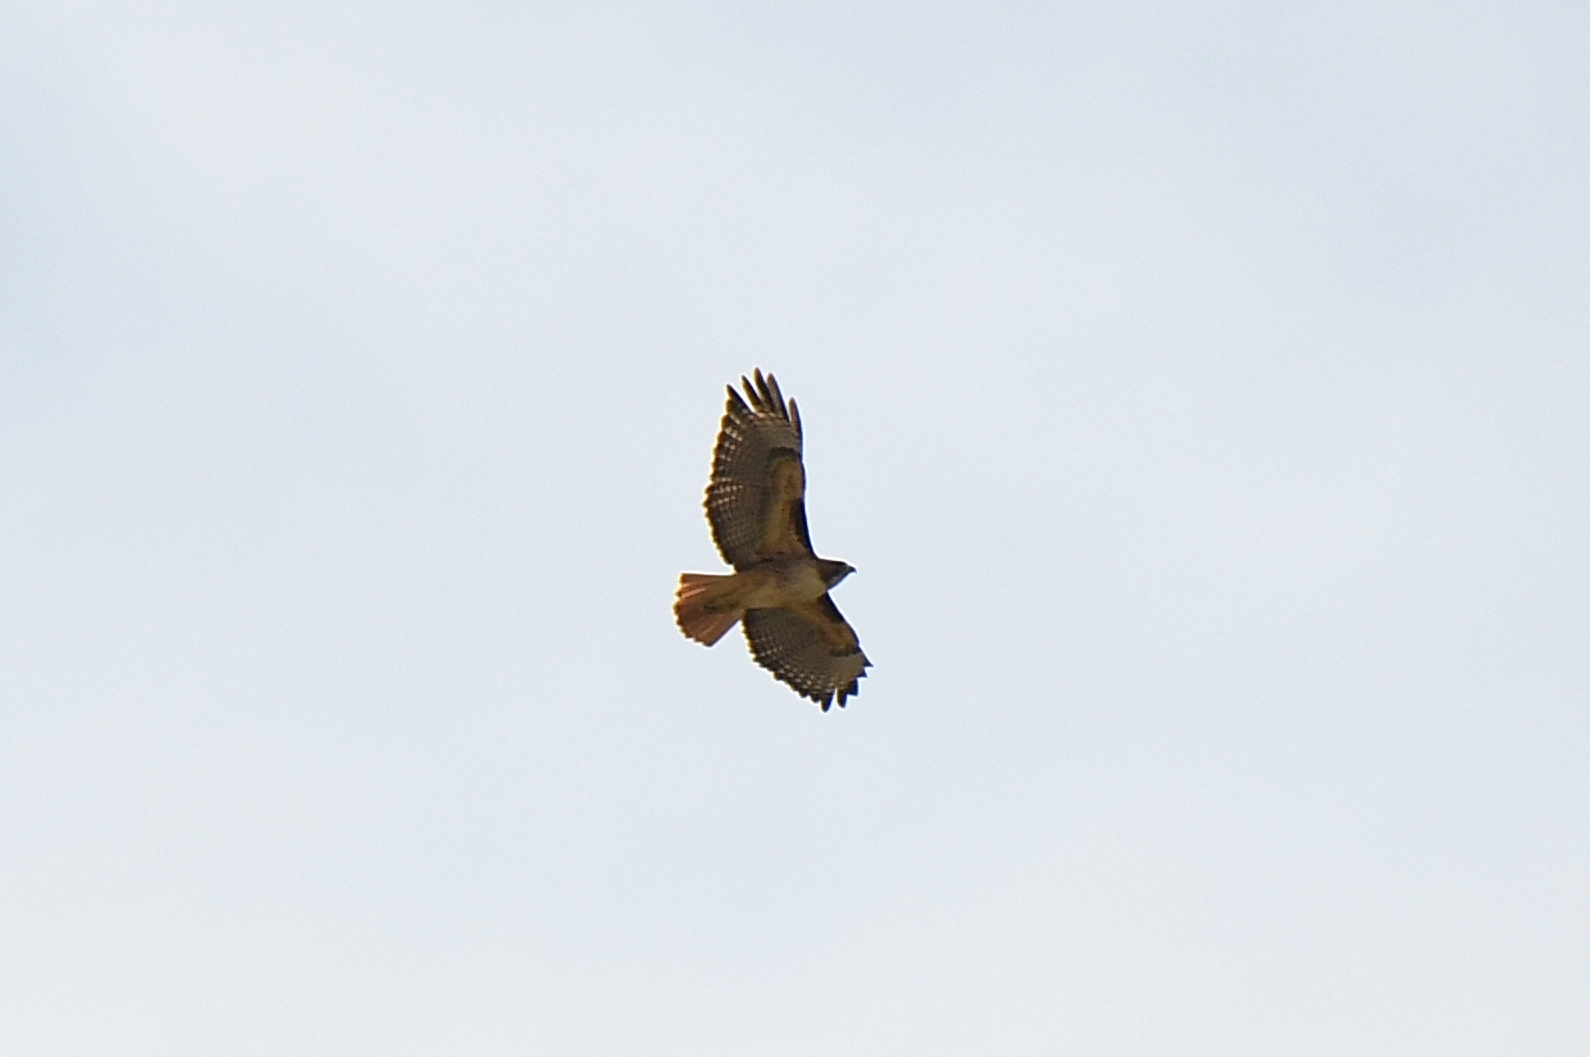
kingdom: Animalia
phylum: Chordata
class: Aves
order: Accipitriformes
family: Accipitridae
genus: Buteo
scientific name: Buteo jamaicensis
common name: Red-tailed hawk
